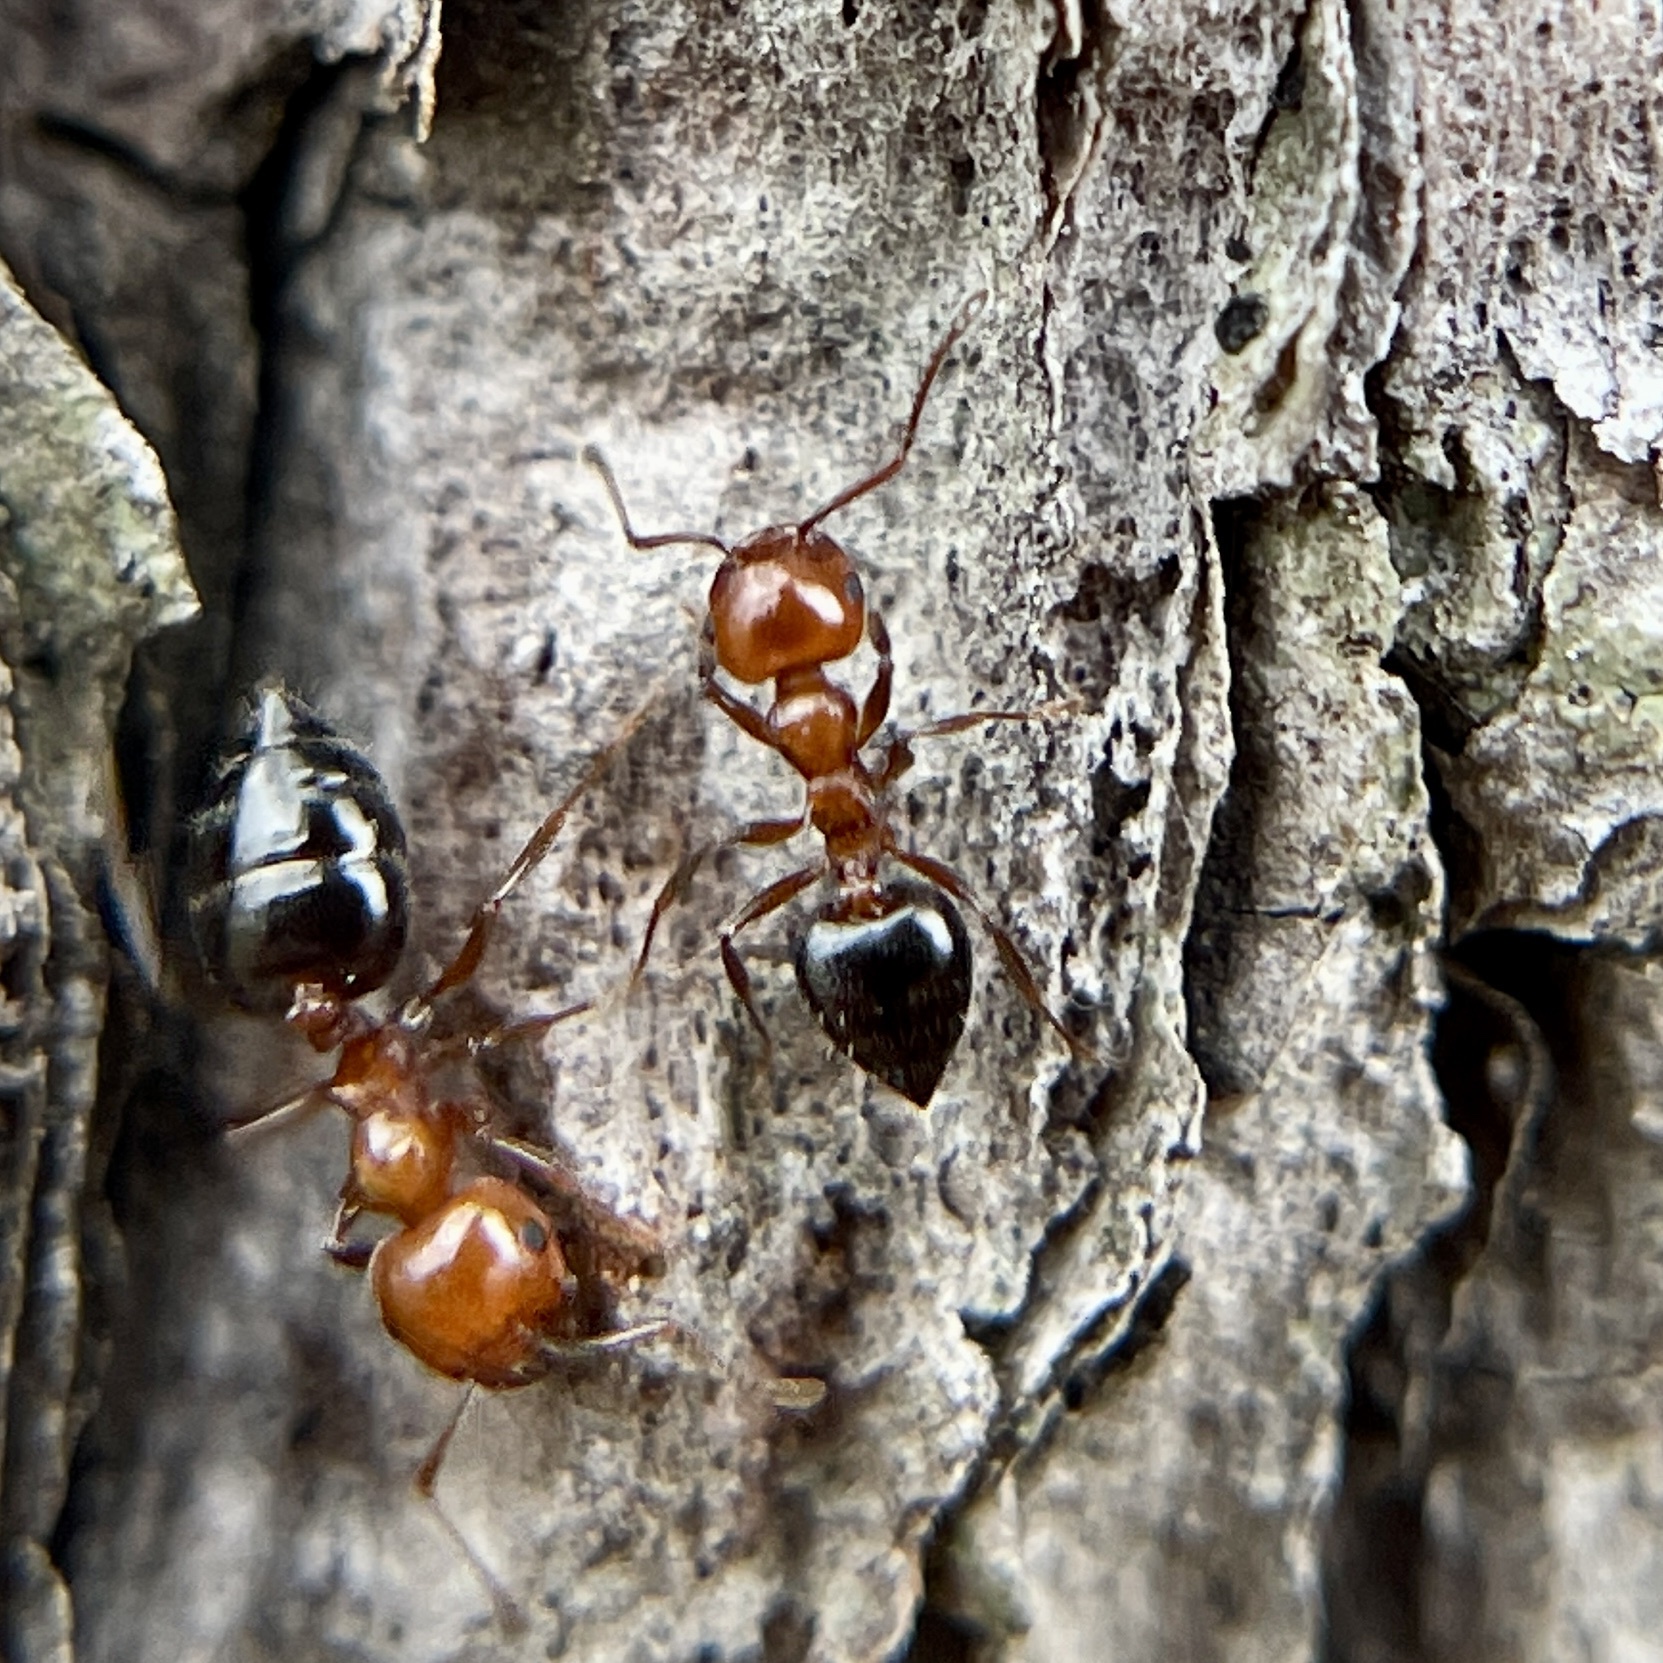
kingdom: Animalia
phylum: Arthropoda
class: Insecta
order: Hymenoptera
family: Formicidae
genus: Crematogaster
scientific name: Crematogaster laeviuscula
